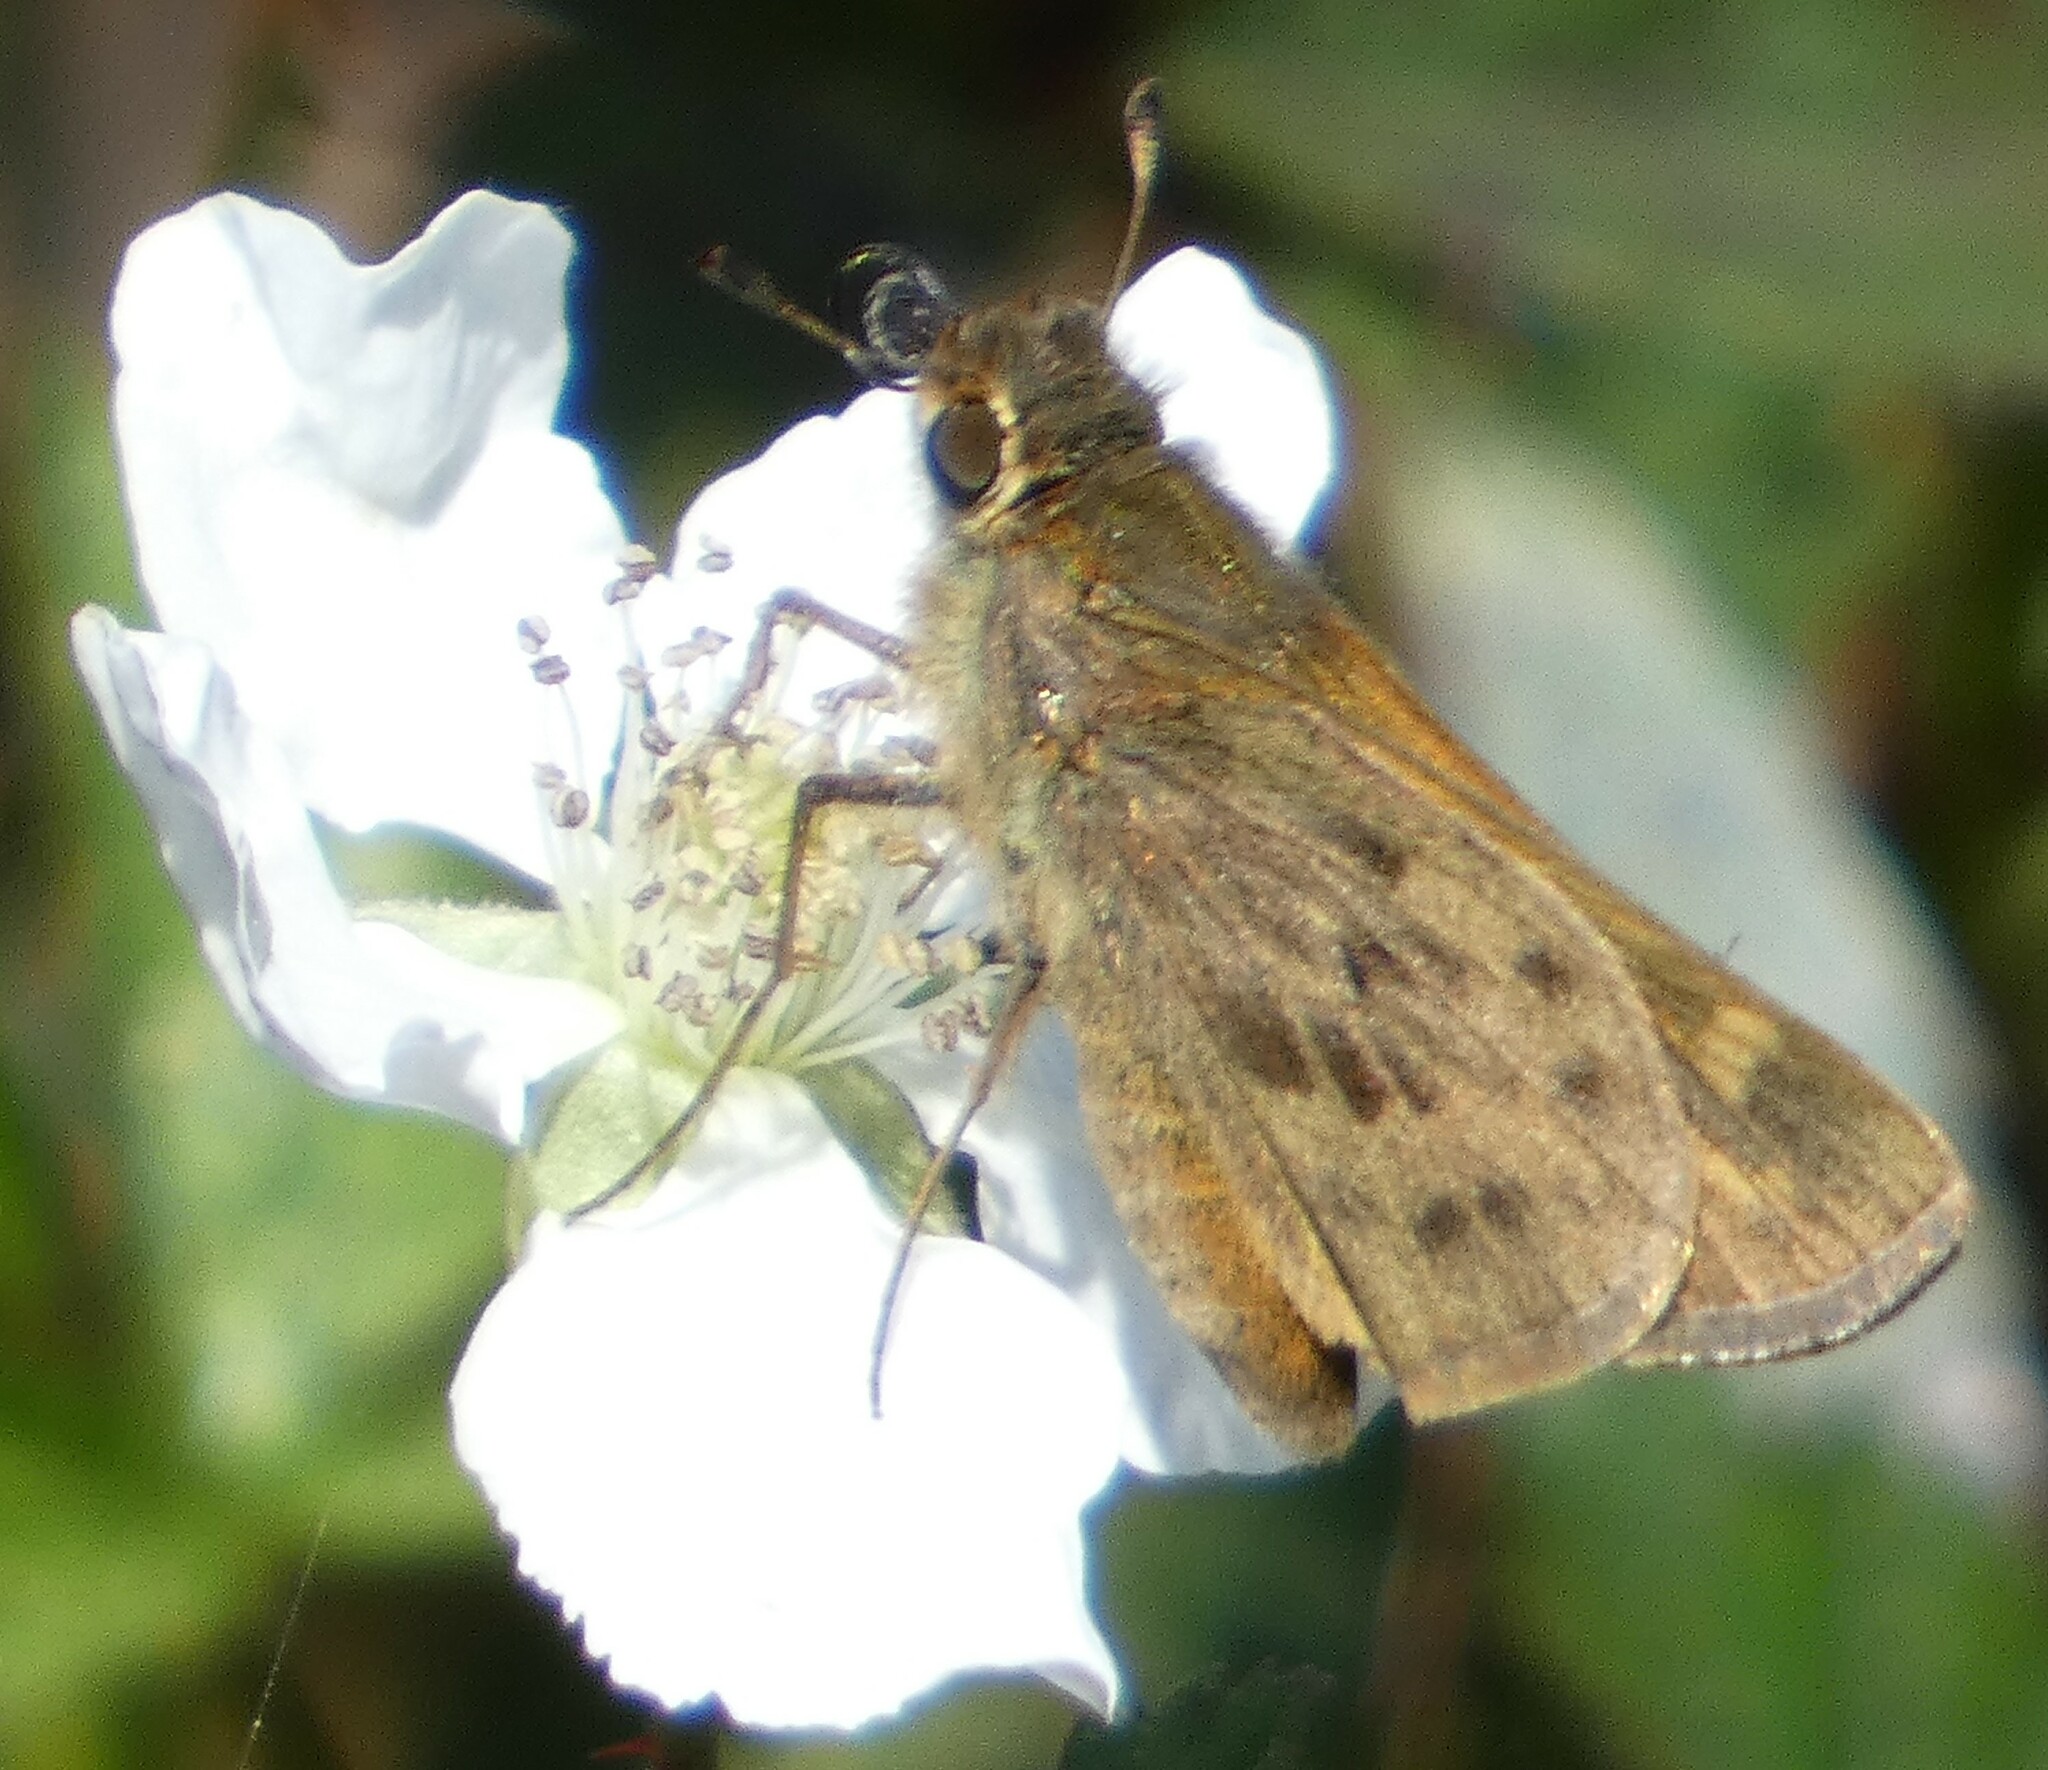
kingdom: Animalia
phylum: Arthropoda
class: Insecta
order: Lepidoptera
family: Hesperiidae
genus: Hylephila
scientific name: Hylephila phyleus
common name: Fiery skipper
